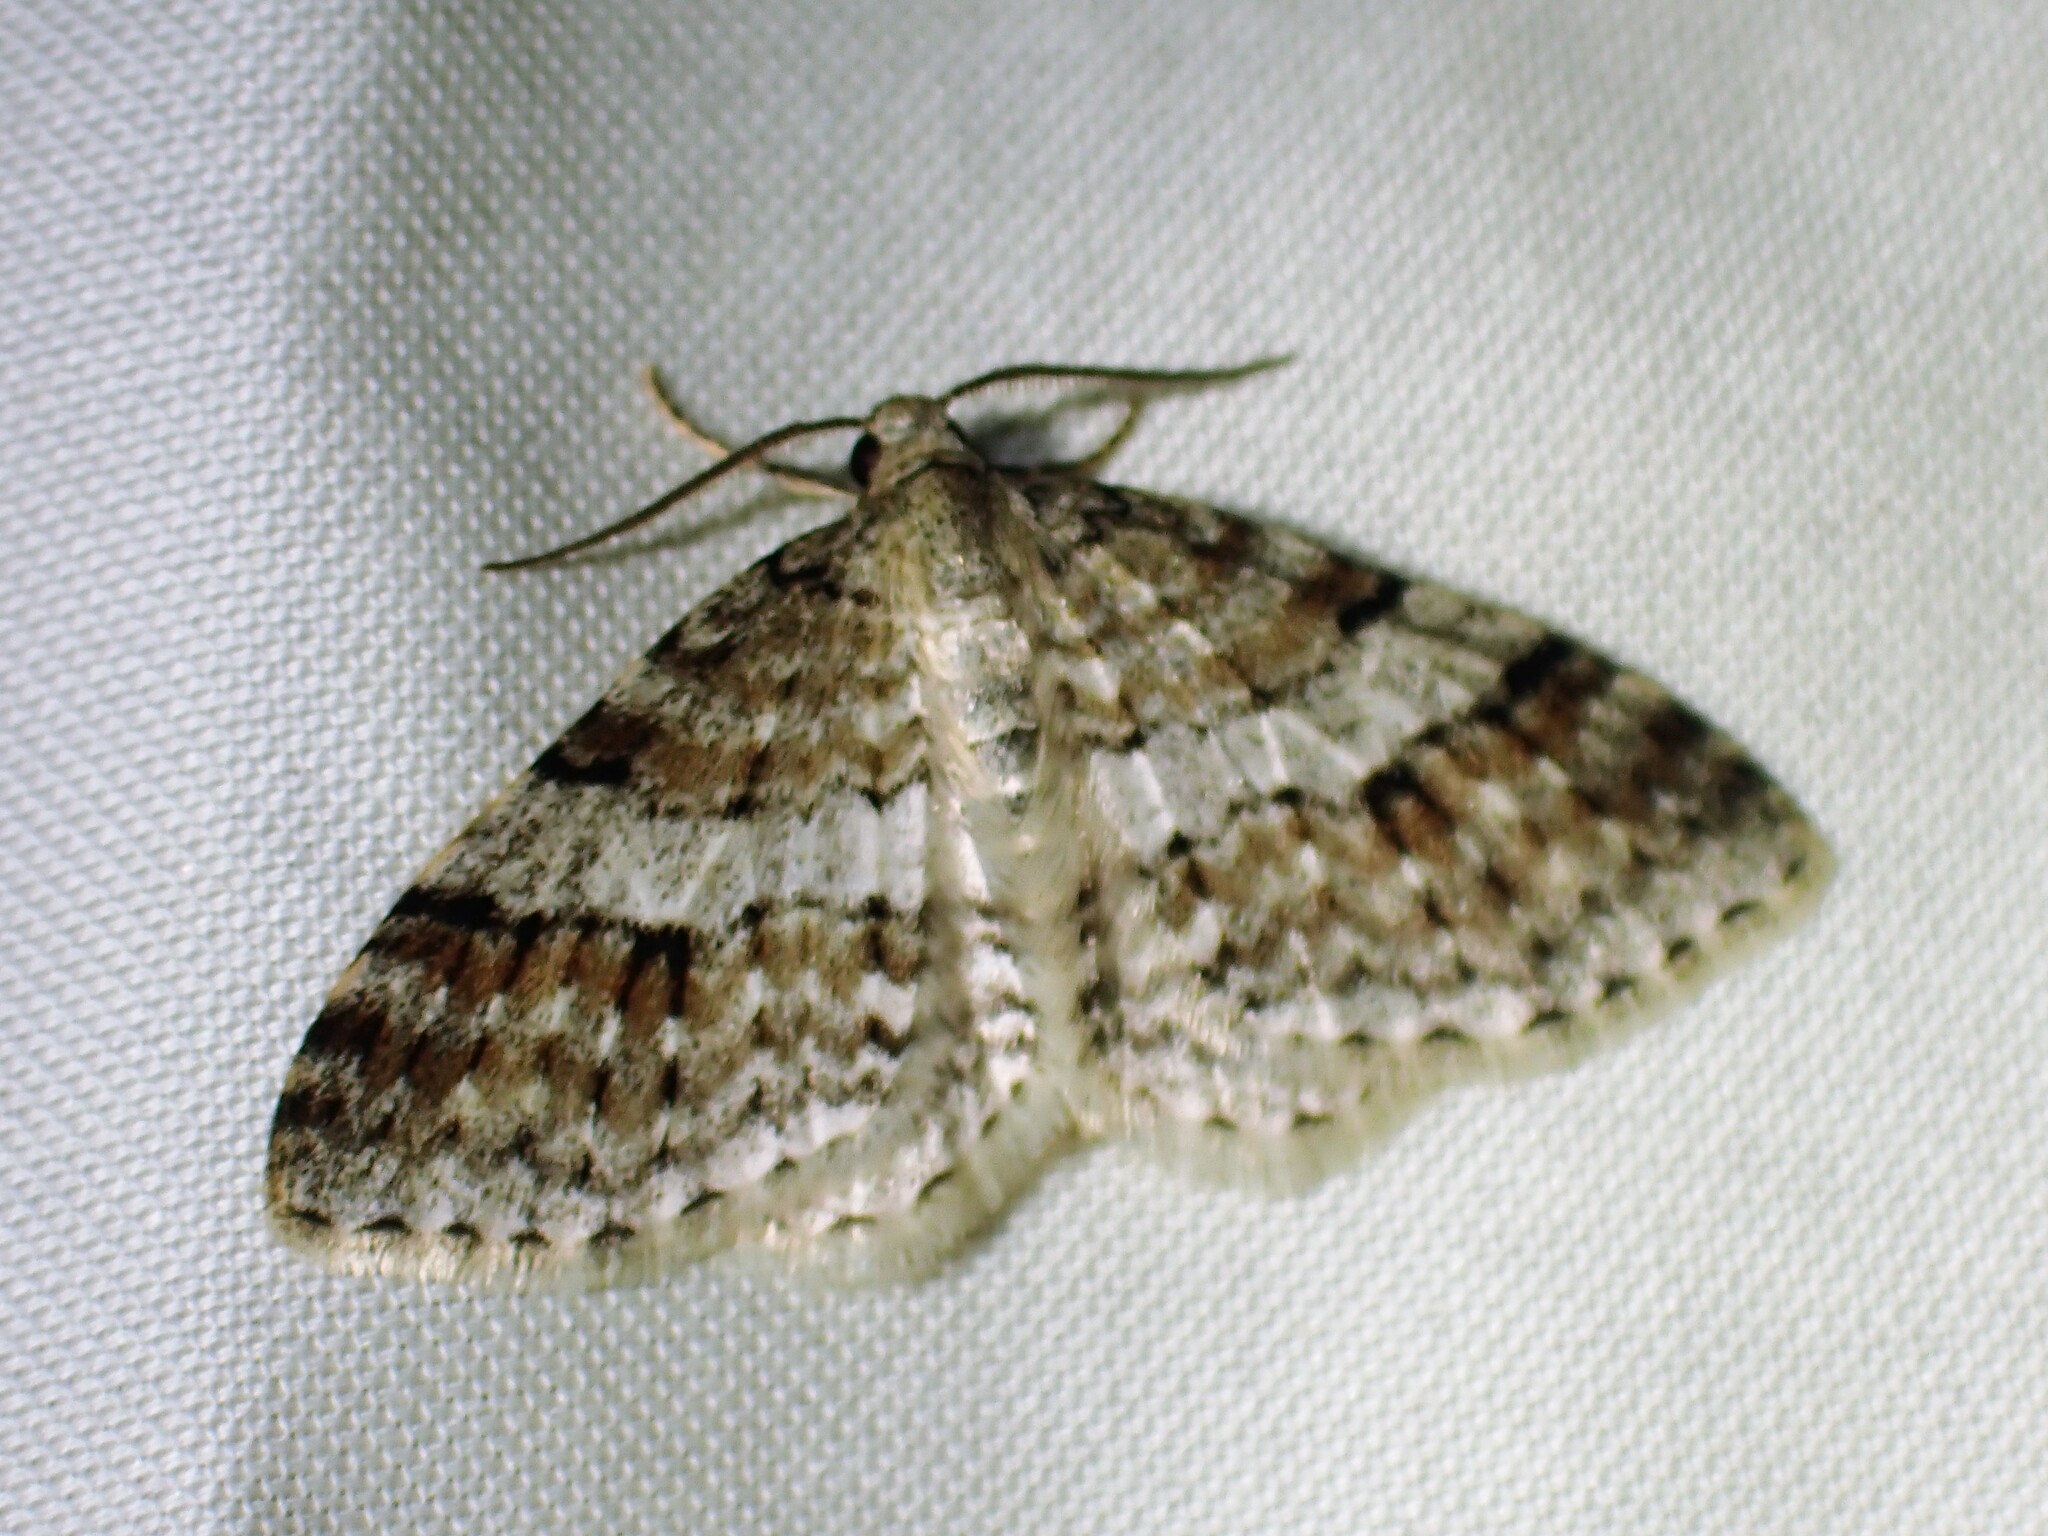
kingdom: Animalia
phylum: Arthropoda
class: Insecta
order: Lepidoptera
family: Geometridae
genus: Venusia
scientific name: Venusia cambrica
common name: Welsh wave
